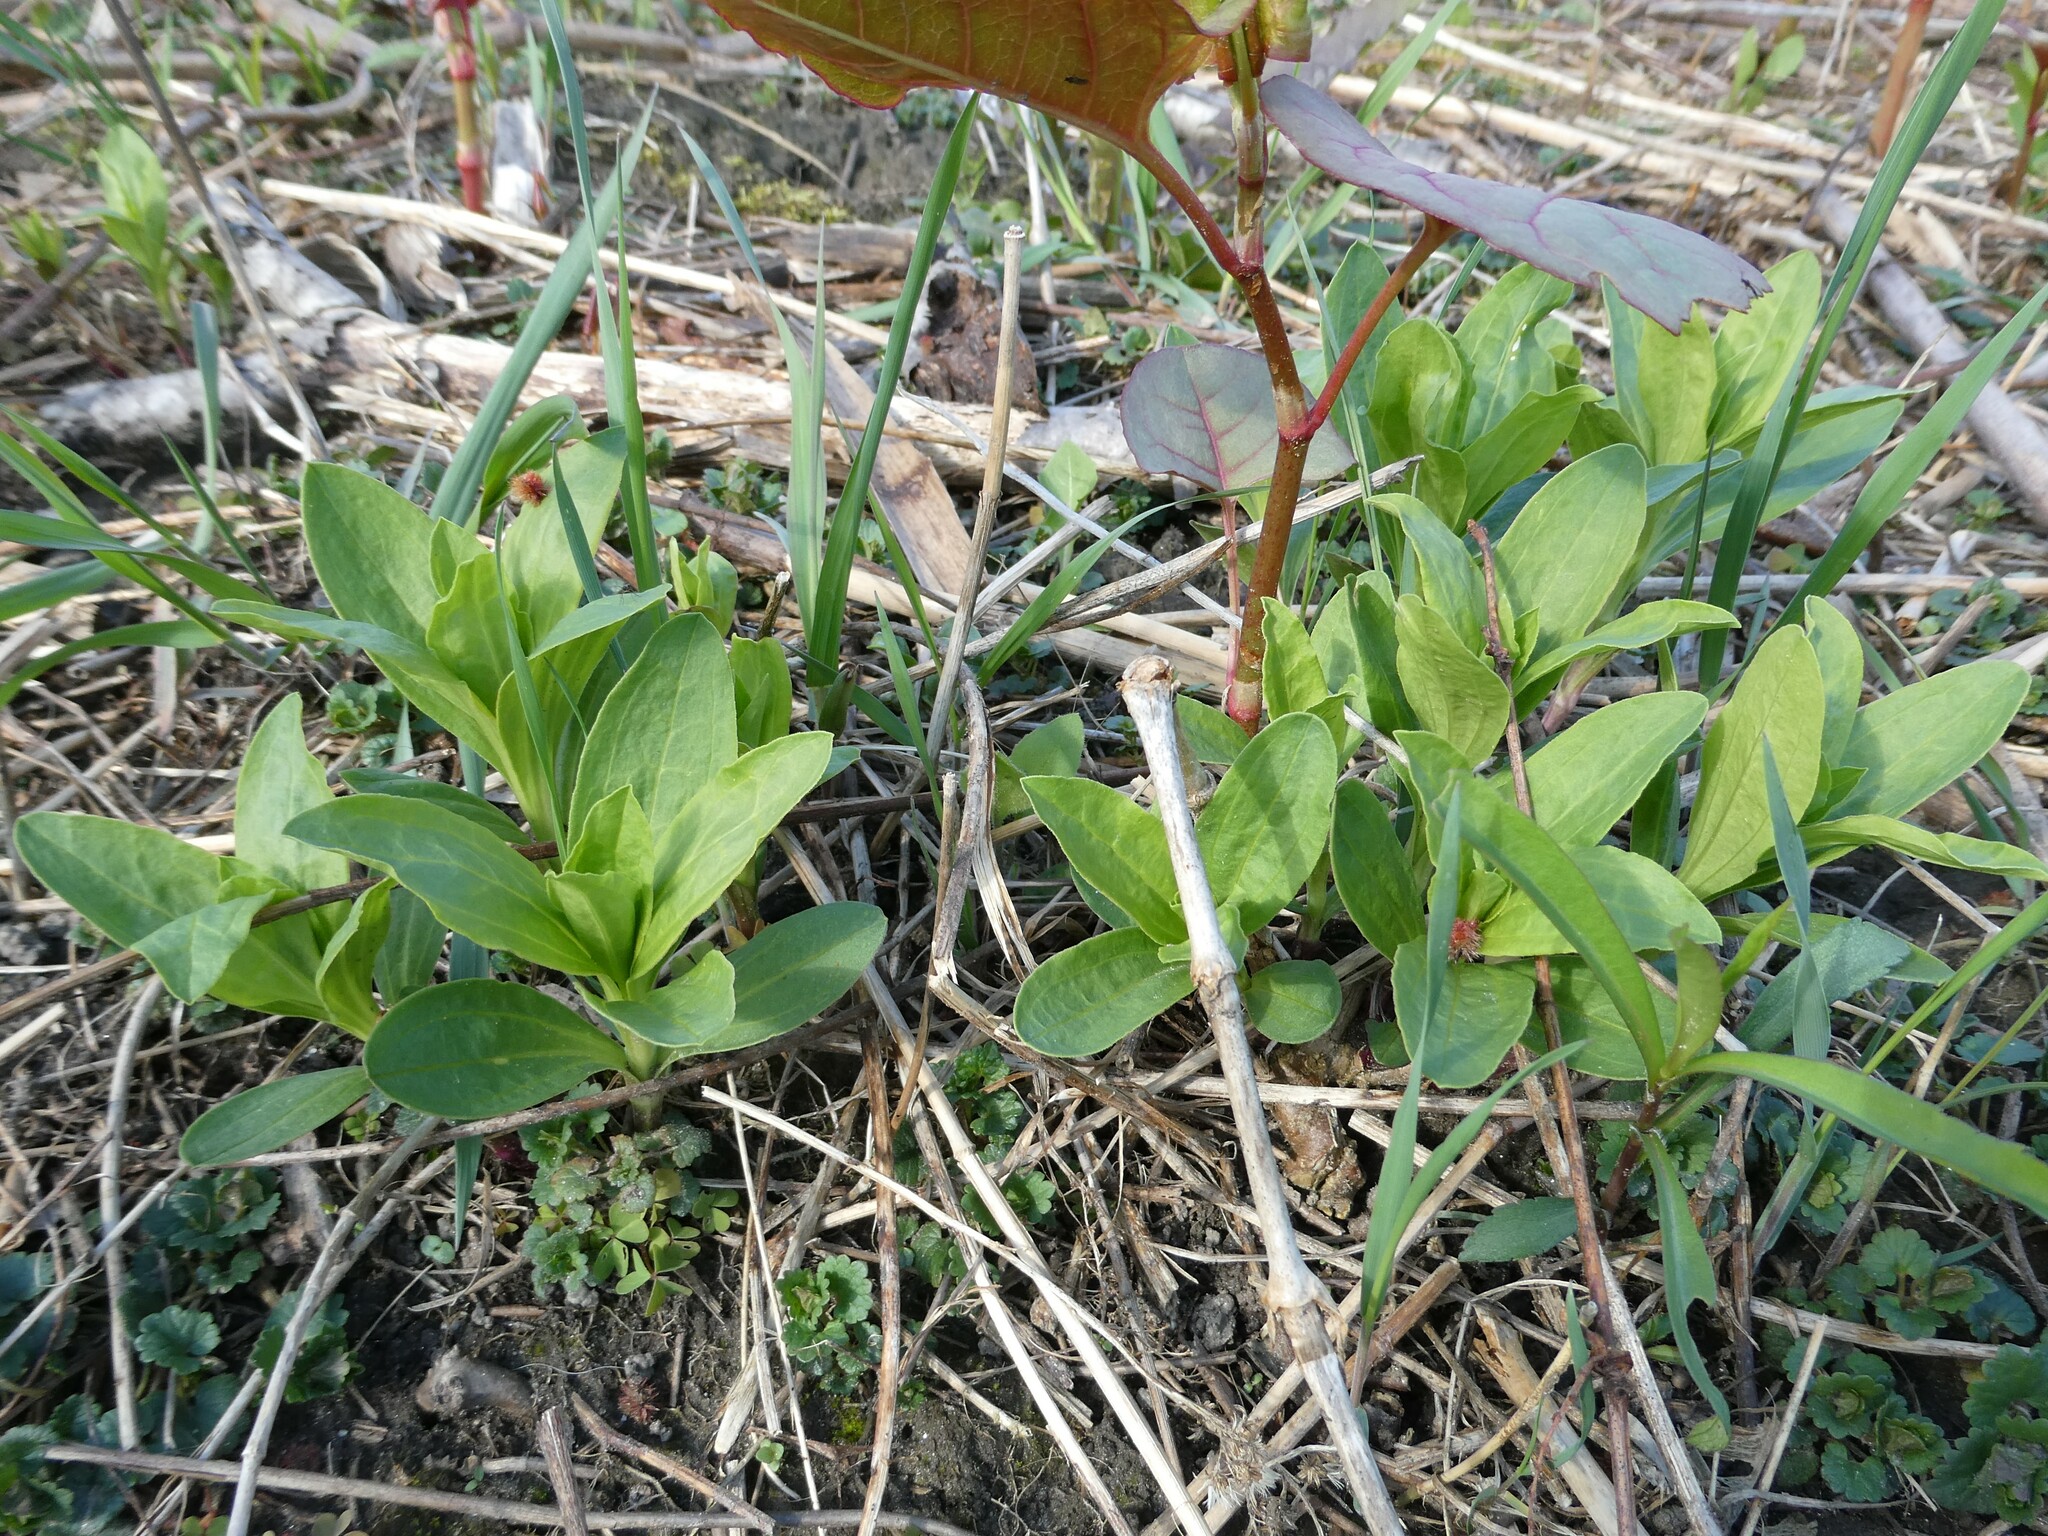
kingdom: Plantae
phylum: Tracheophyta
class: Magnoliopsida
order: Caryophyllales
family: Caryophyllaceae
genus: Saponaria
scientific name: Saponaria officinalis
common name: Soapwort
